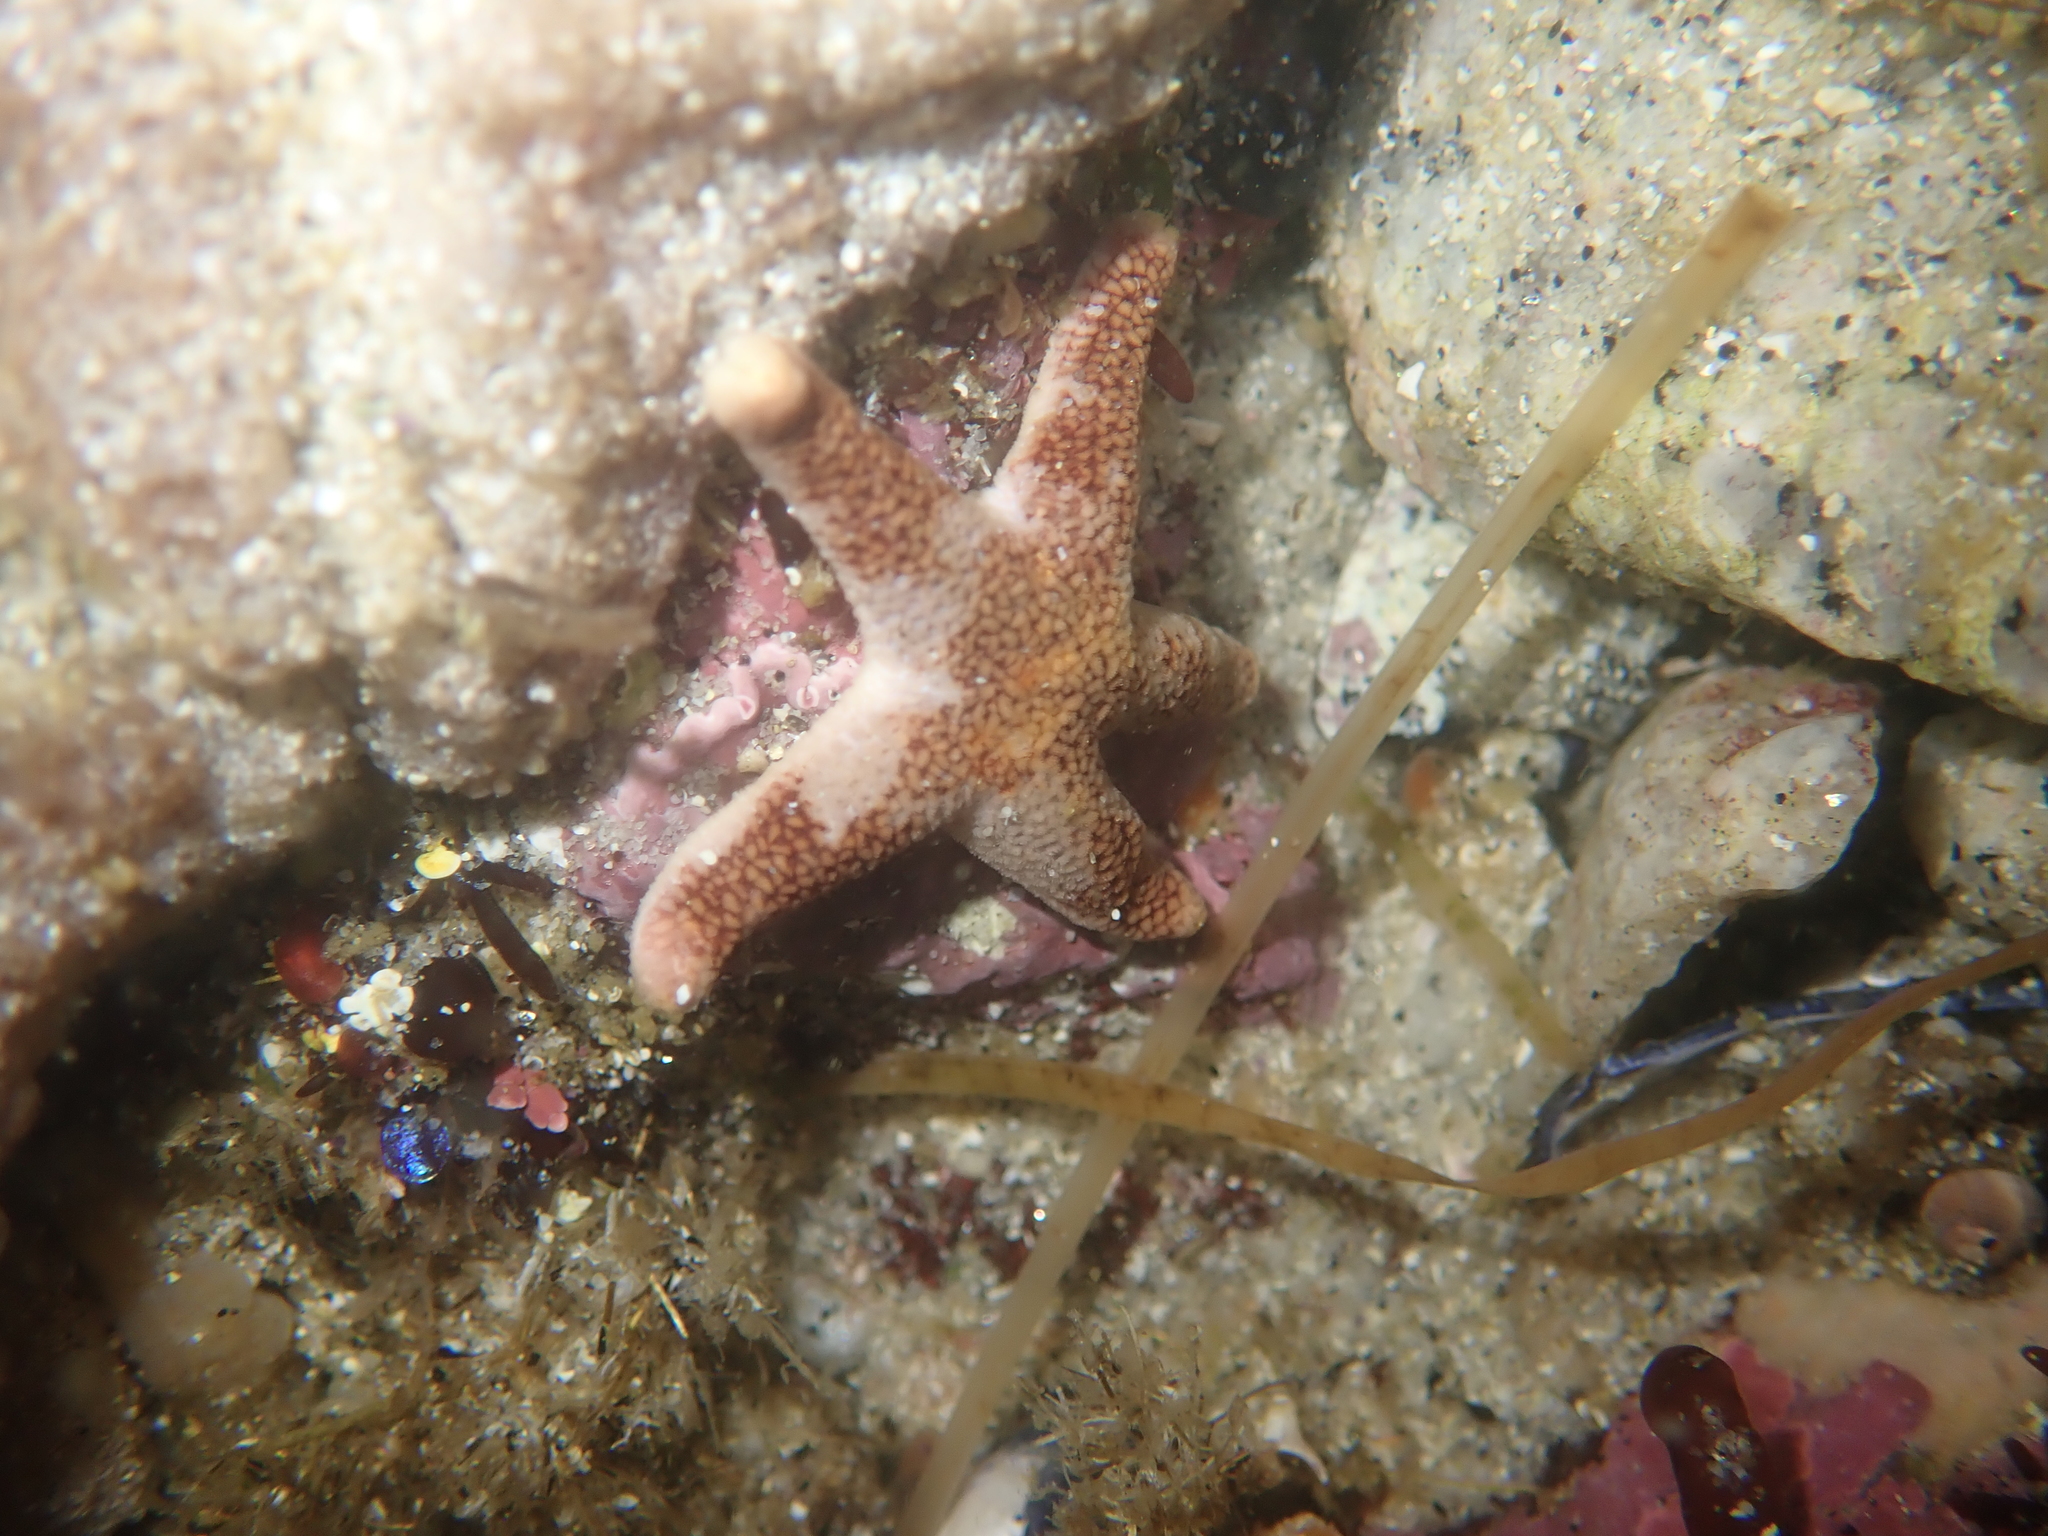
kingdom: Animalia
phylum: Echinodermata
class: Asteroidea
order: Spinulosida
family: Echinasteridae
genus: Henricia
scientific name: Henricia pumila
